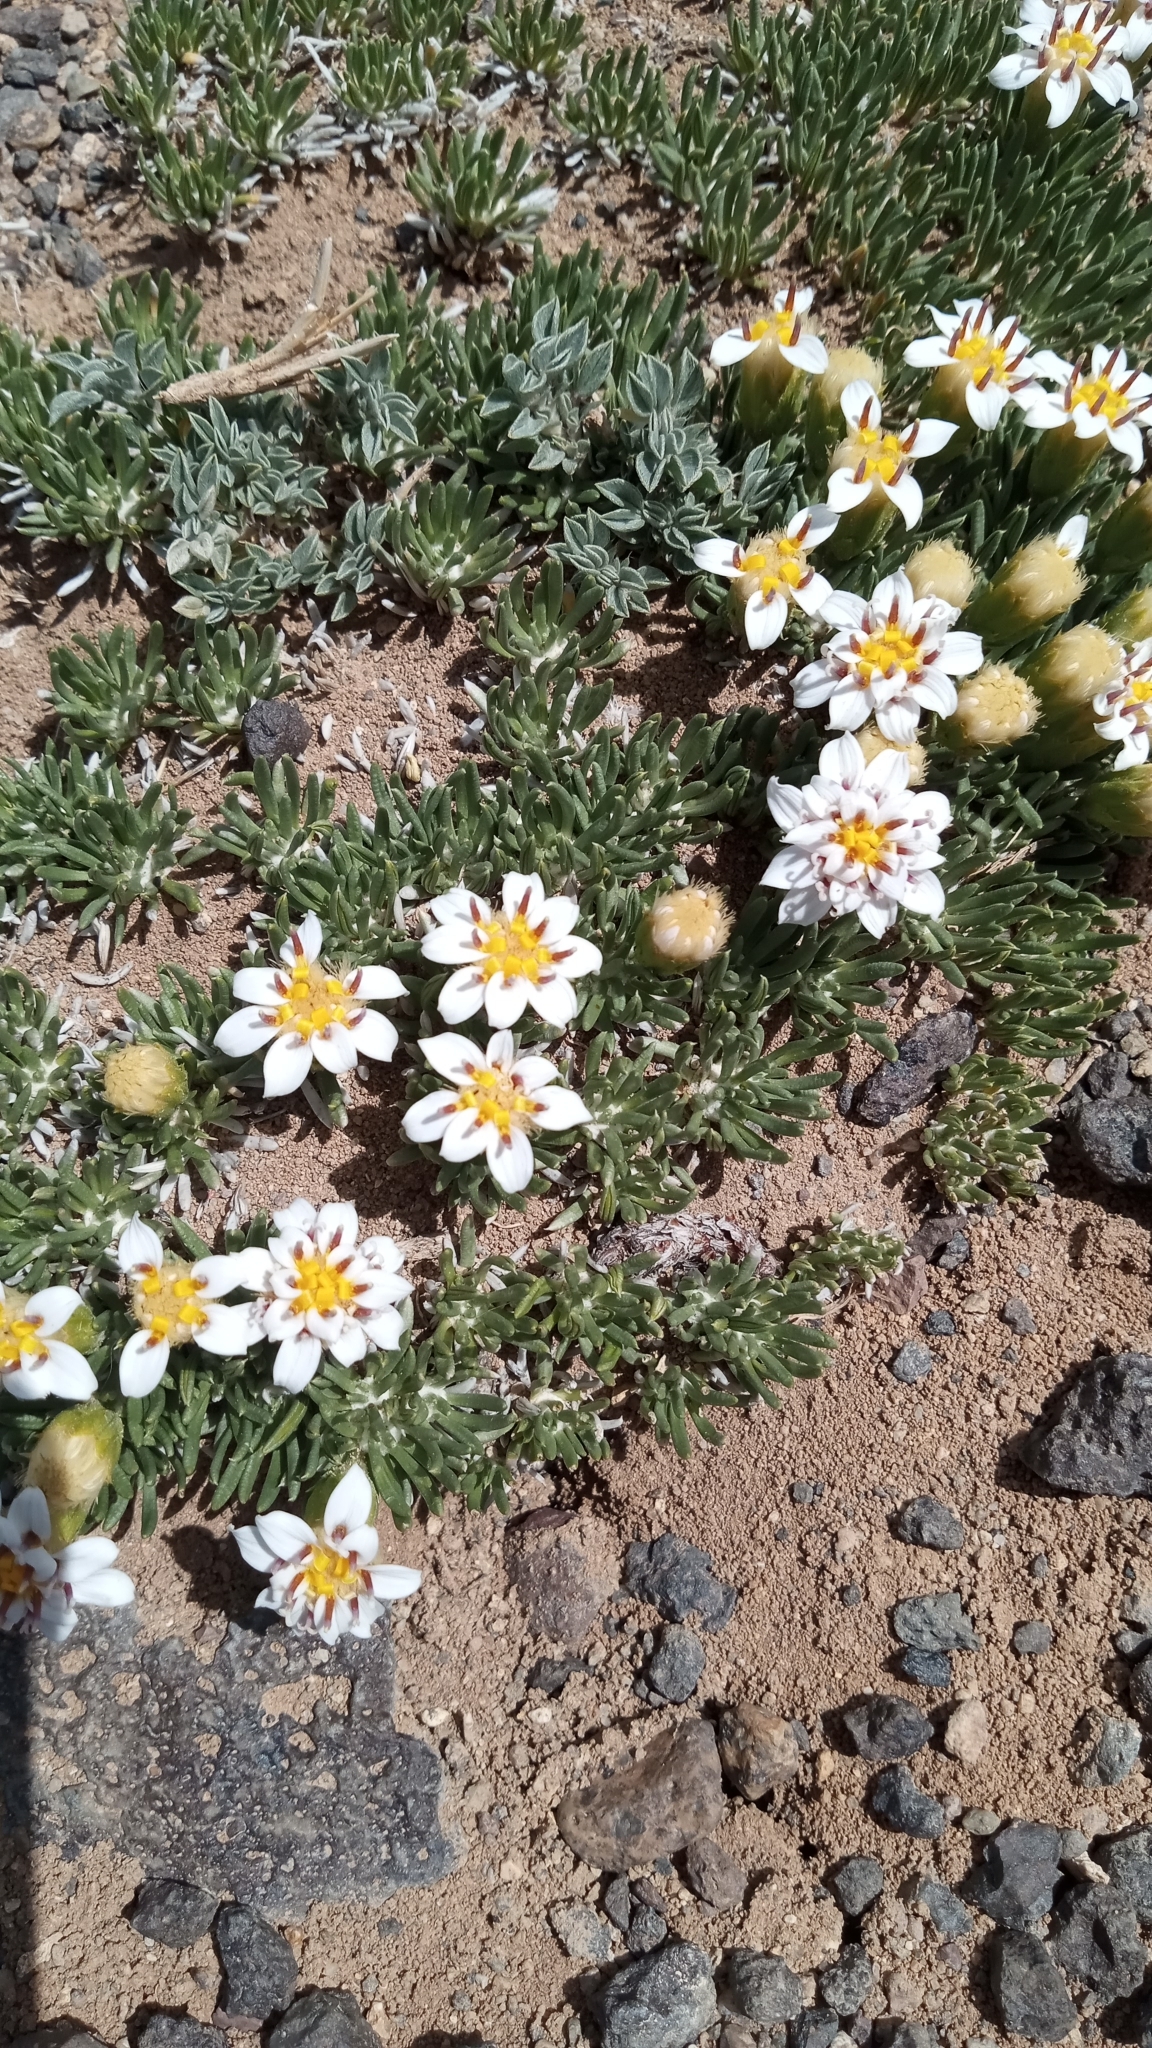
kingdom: Plantae
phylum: Tracheophyta
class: Magnoliopsida
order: Asterales
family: Asteraceae
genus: Burkartia
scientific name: Burkartia lanigera
